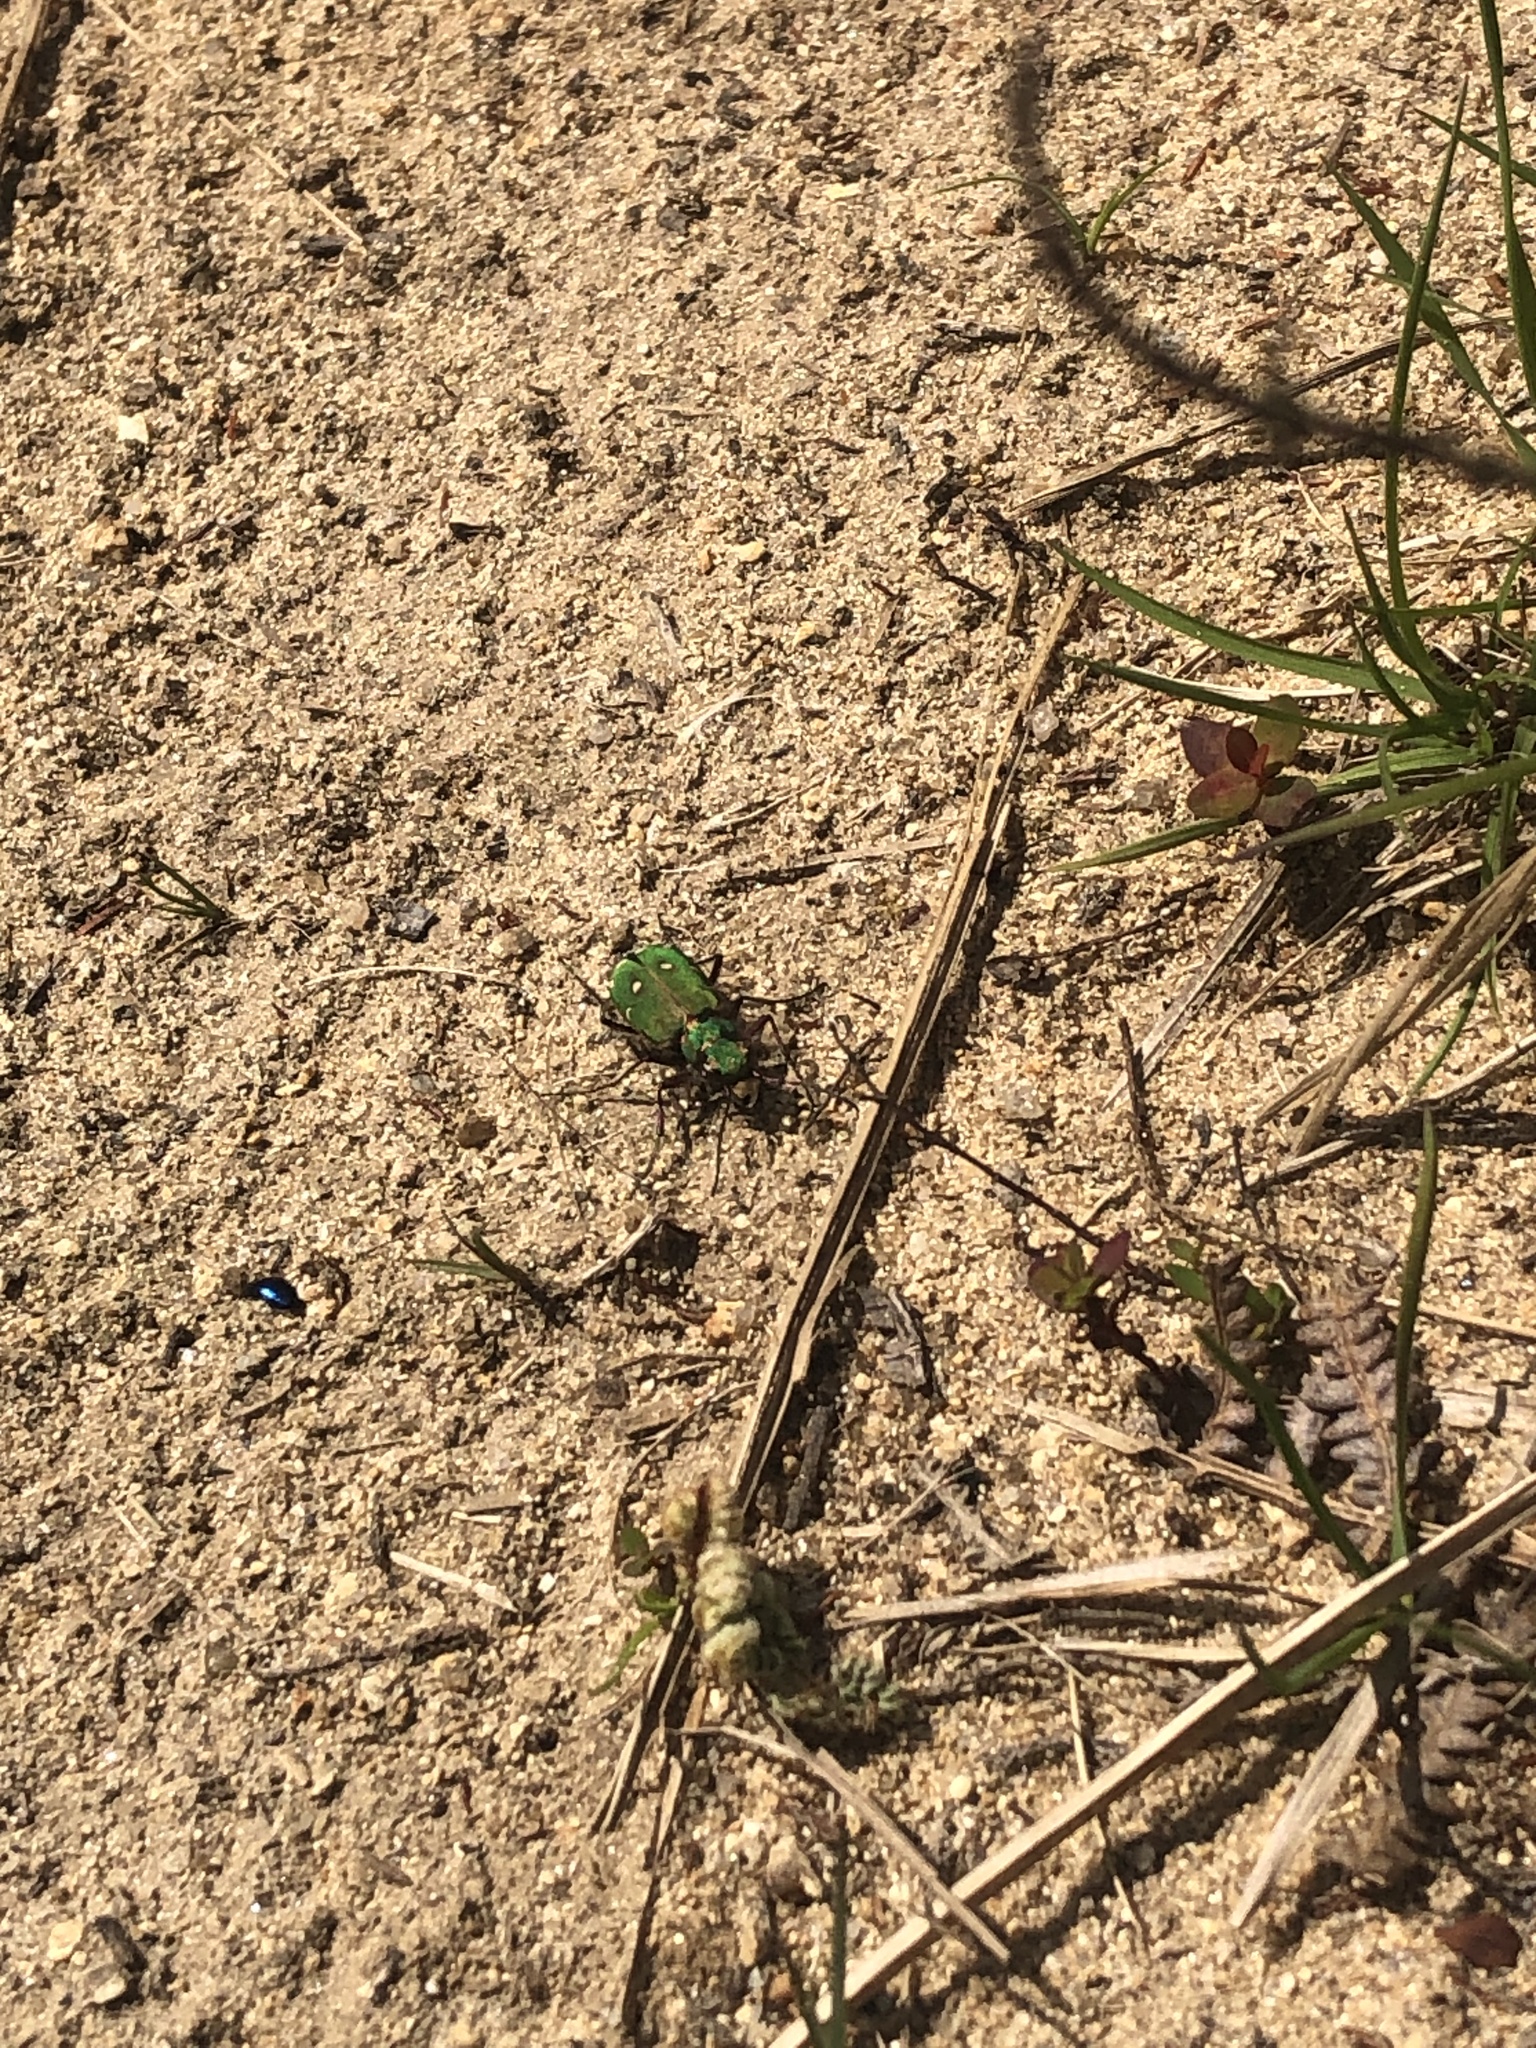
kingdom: Animalia
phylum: Arthropoda
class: Insecta
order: Coleoptera
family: Carabidae
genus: Cicindela
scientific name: Cicindela campestris
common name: Common tiger beetle
